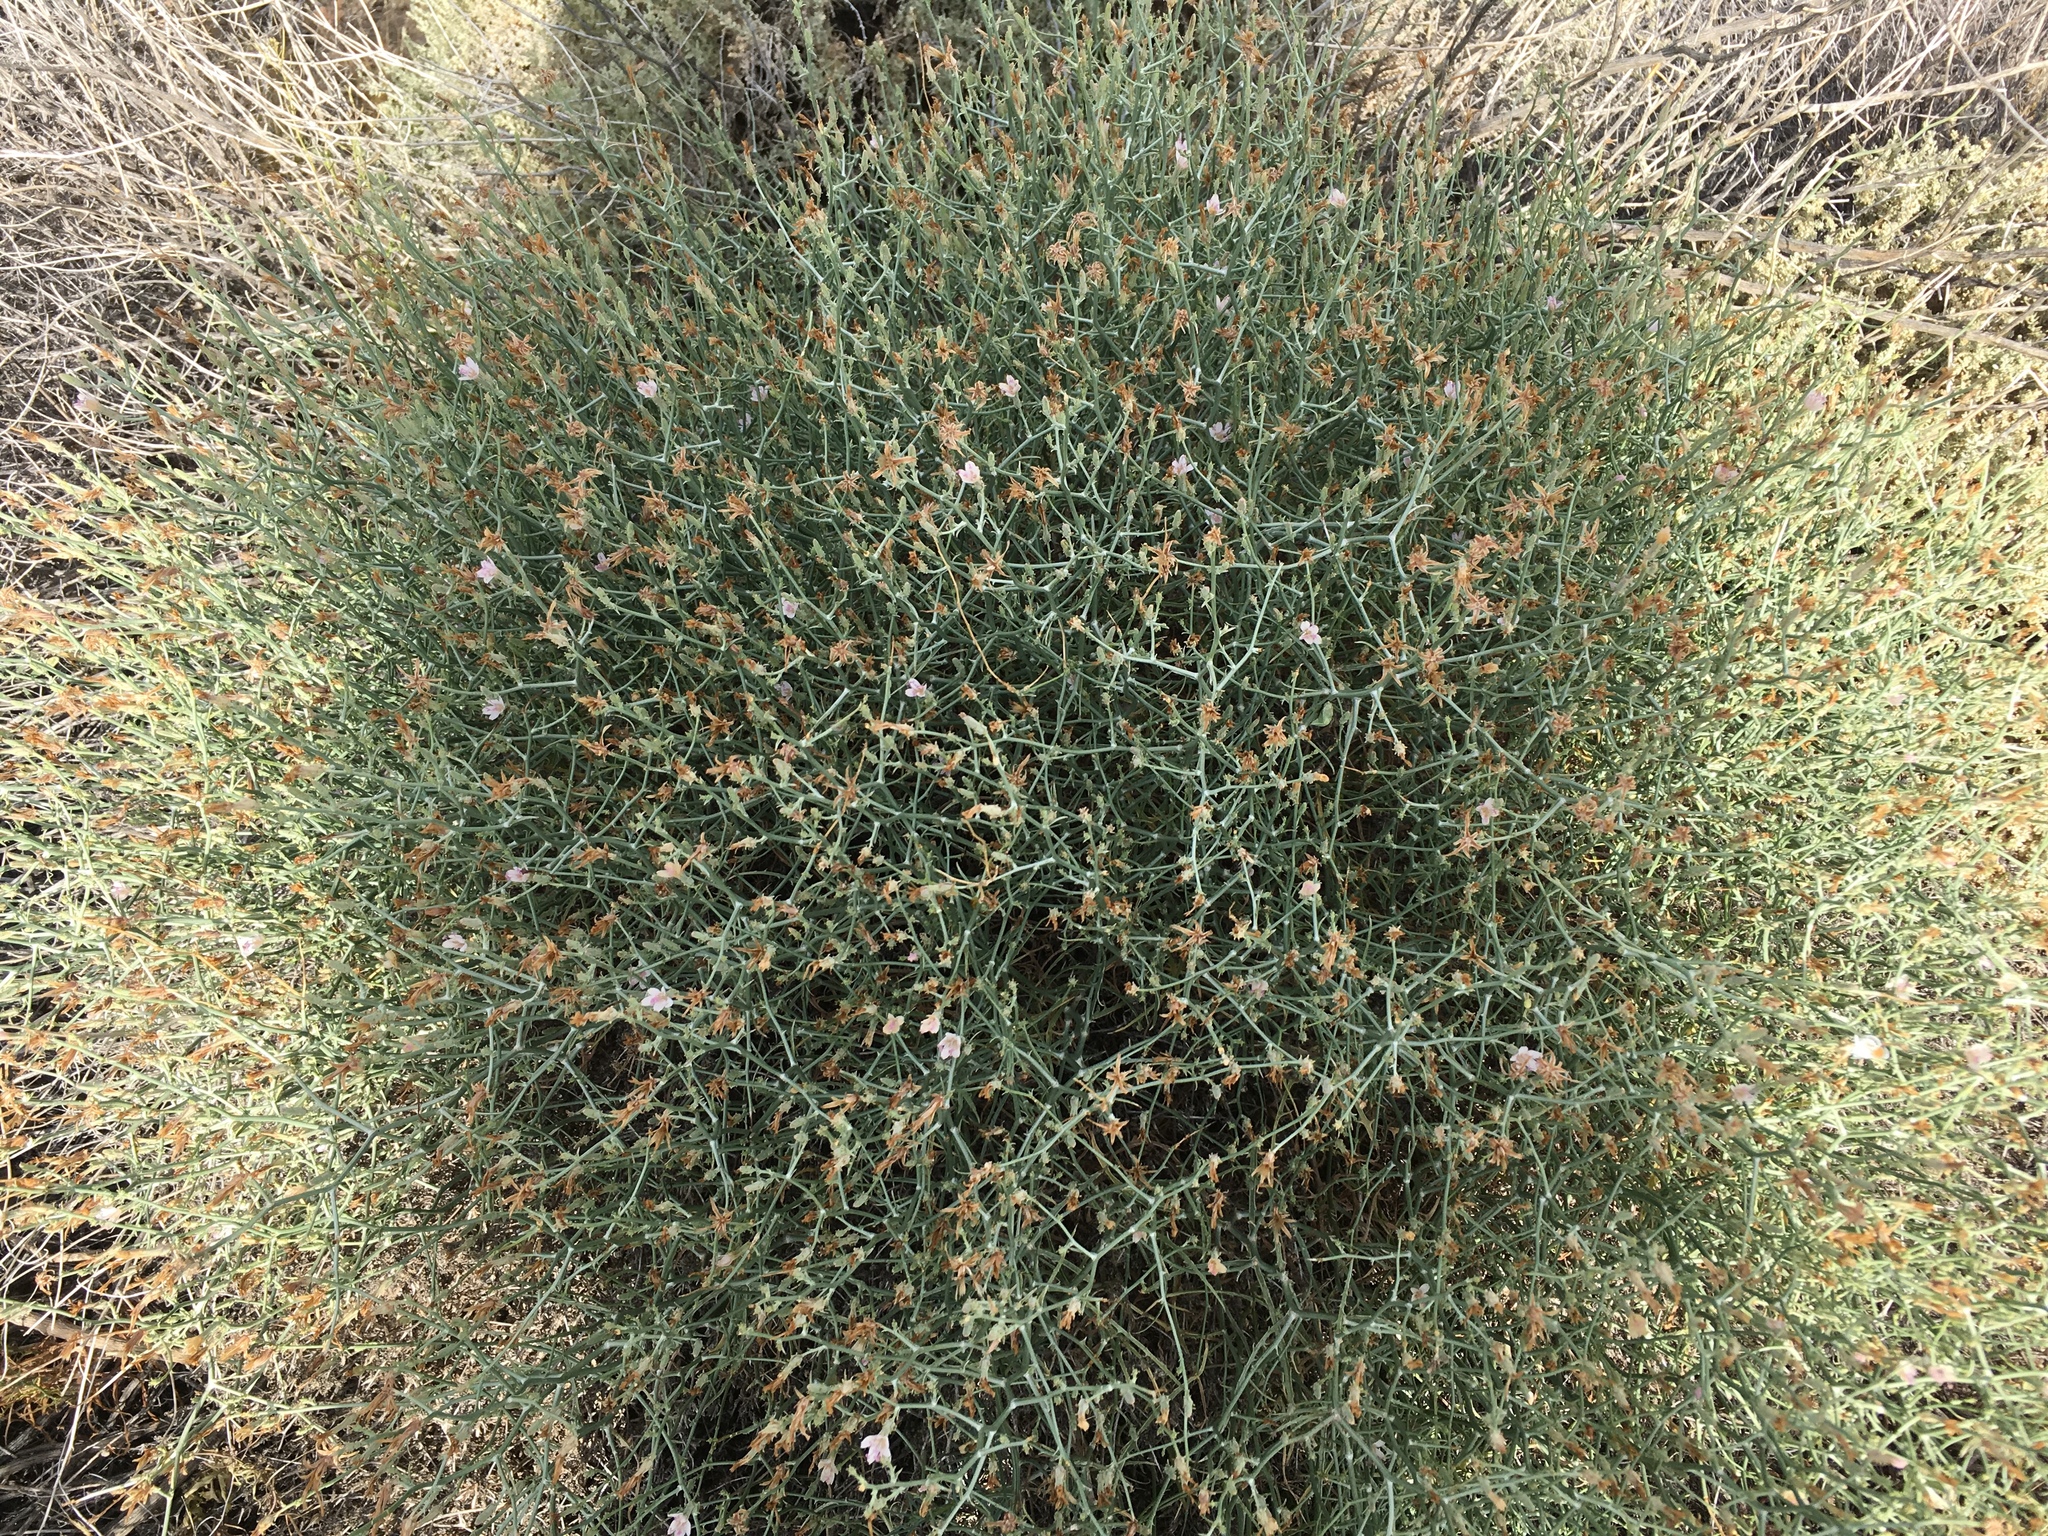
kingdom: Plantae
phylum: Tracheophyta
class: Magnoliopsida
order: Asterales
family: Asteraceae
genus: Stephanomeria
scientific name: Stephanomeria pauciflora
